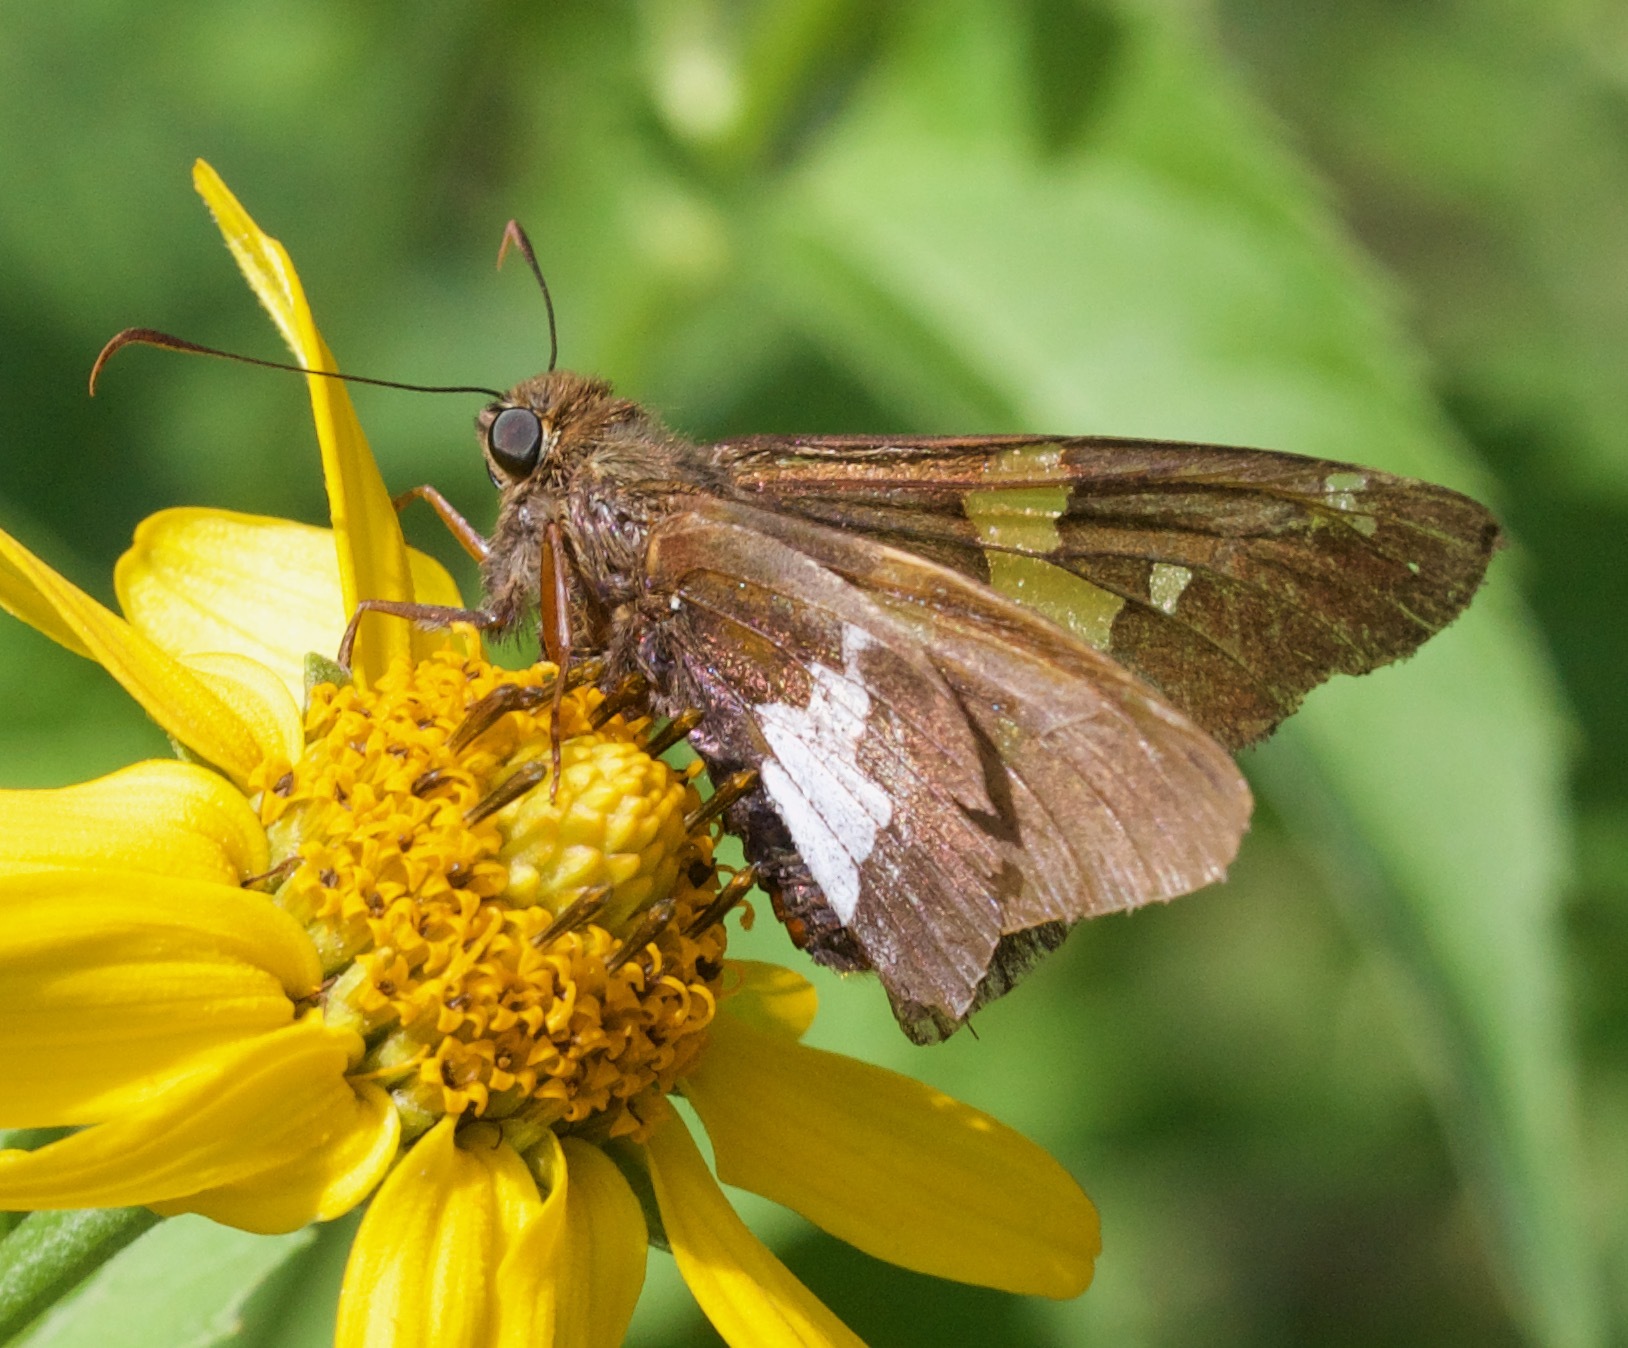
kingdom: Animalia
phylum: Arthropoda
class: Insecta
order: Lepidoptera
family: Hesperiidae
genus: Epargyreus
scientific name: Epargyreus clarus
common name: Silver-spotted skipper
